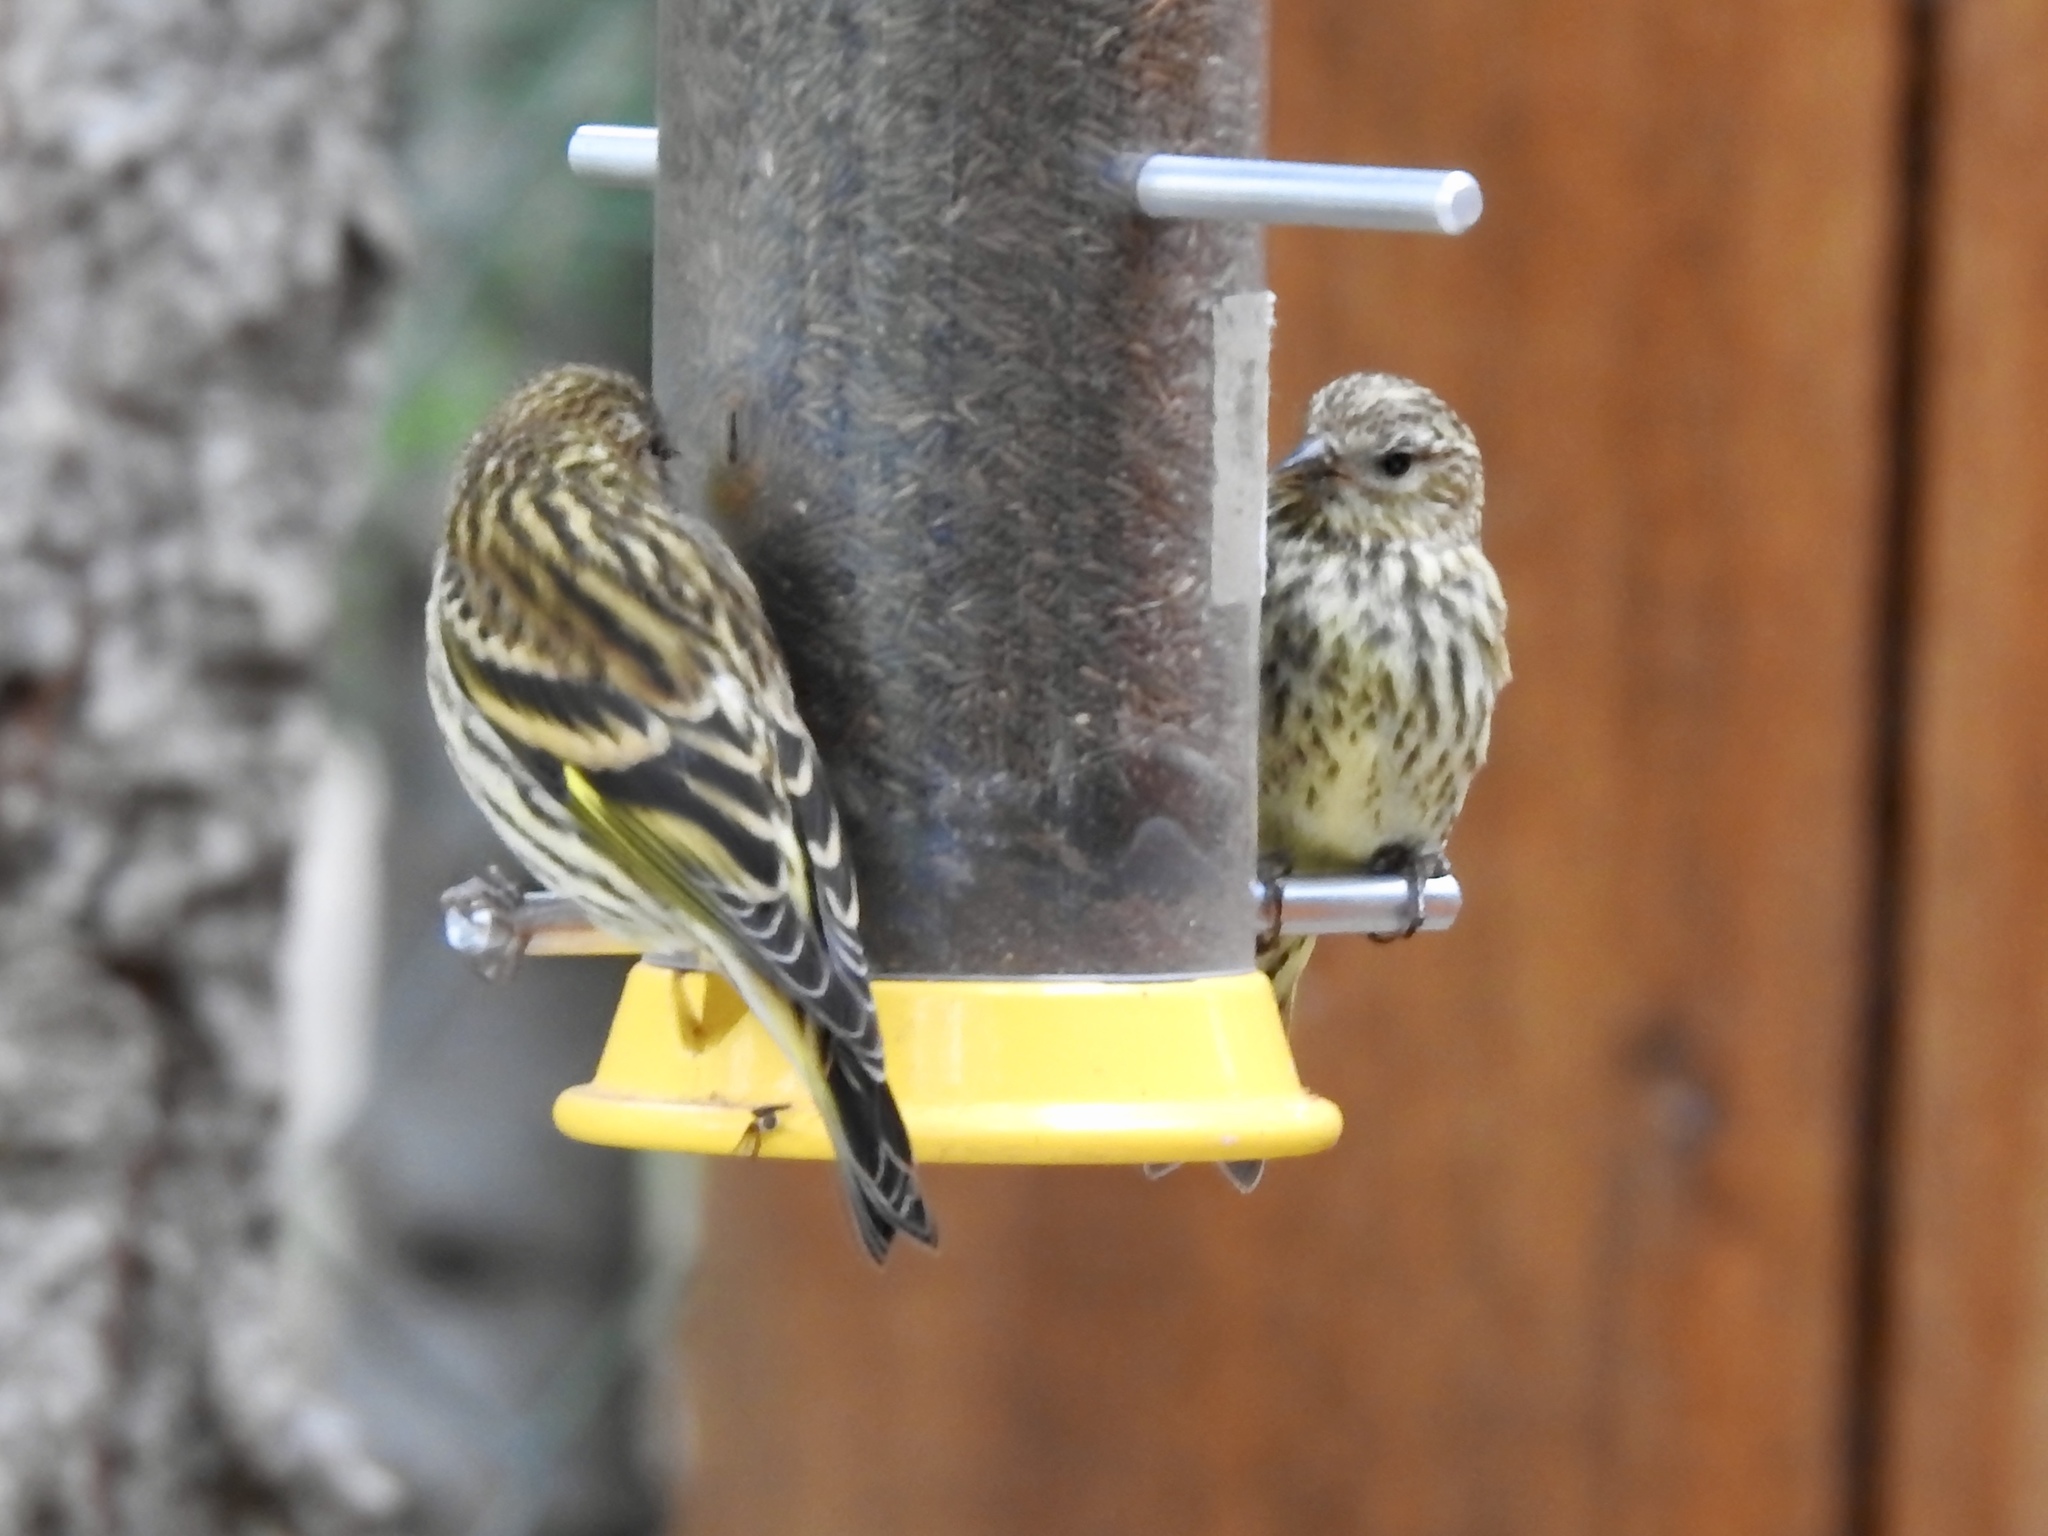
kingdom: Animalia
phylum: Chordata
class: Aves
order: Passeriformes
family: Fringillidae
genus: Spinus
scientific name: Spinus pinus
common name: Pine siskin
